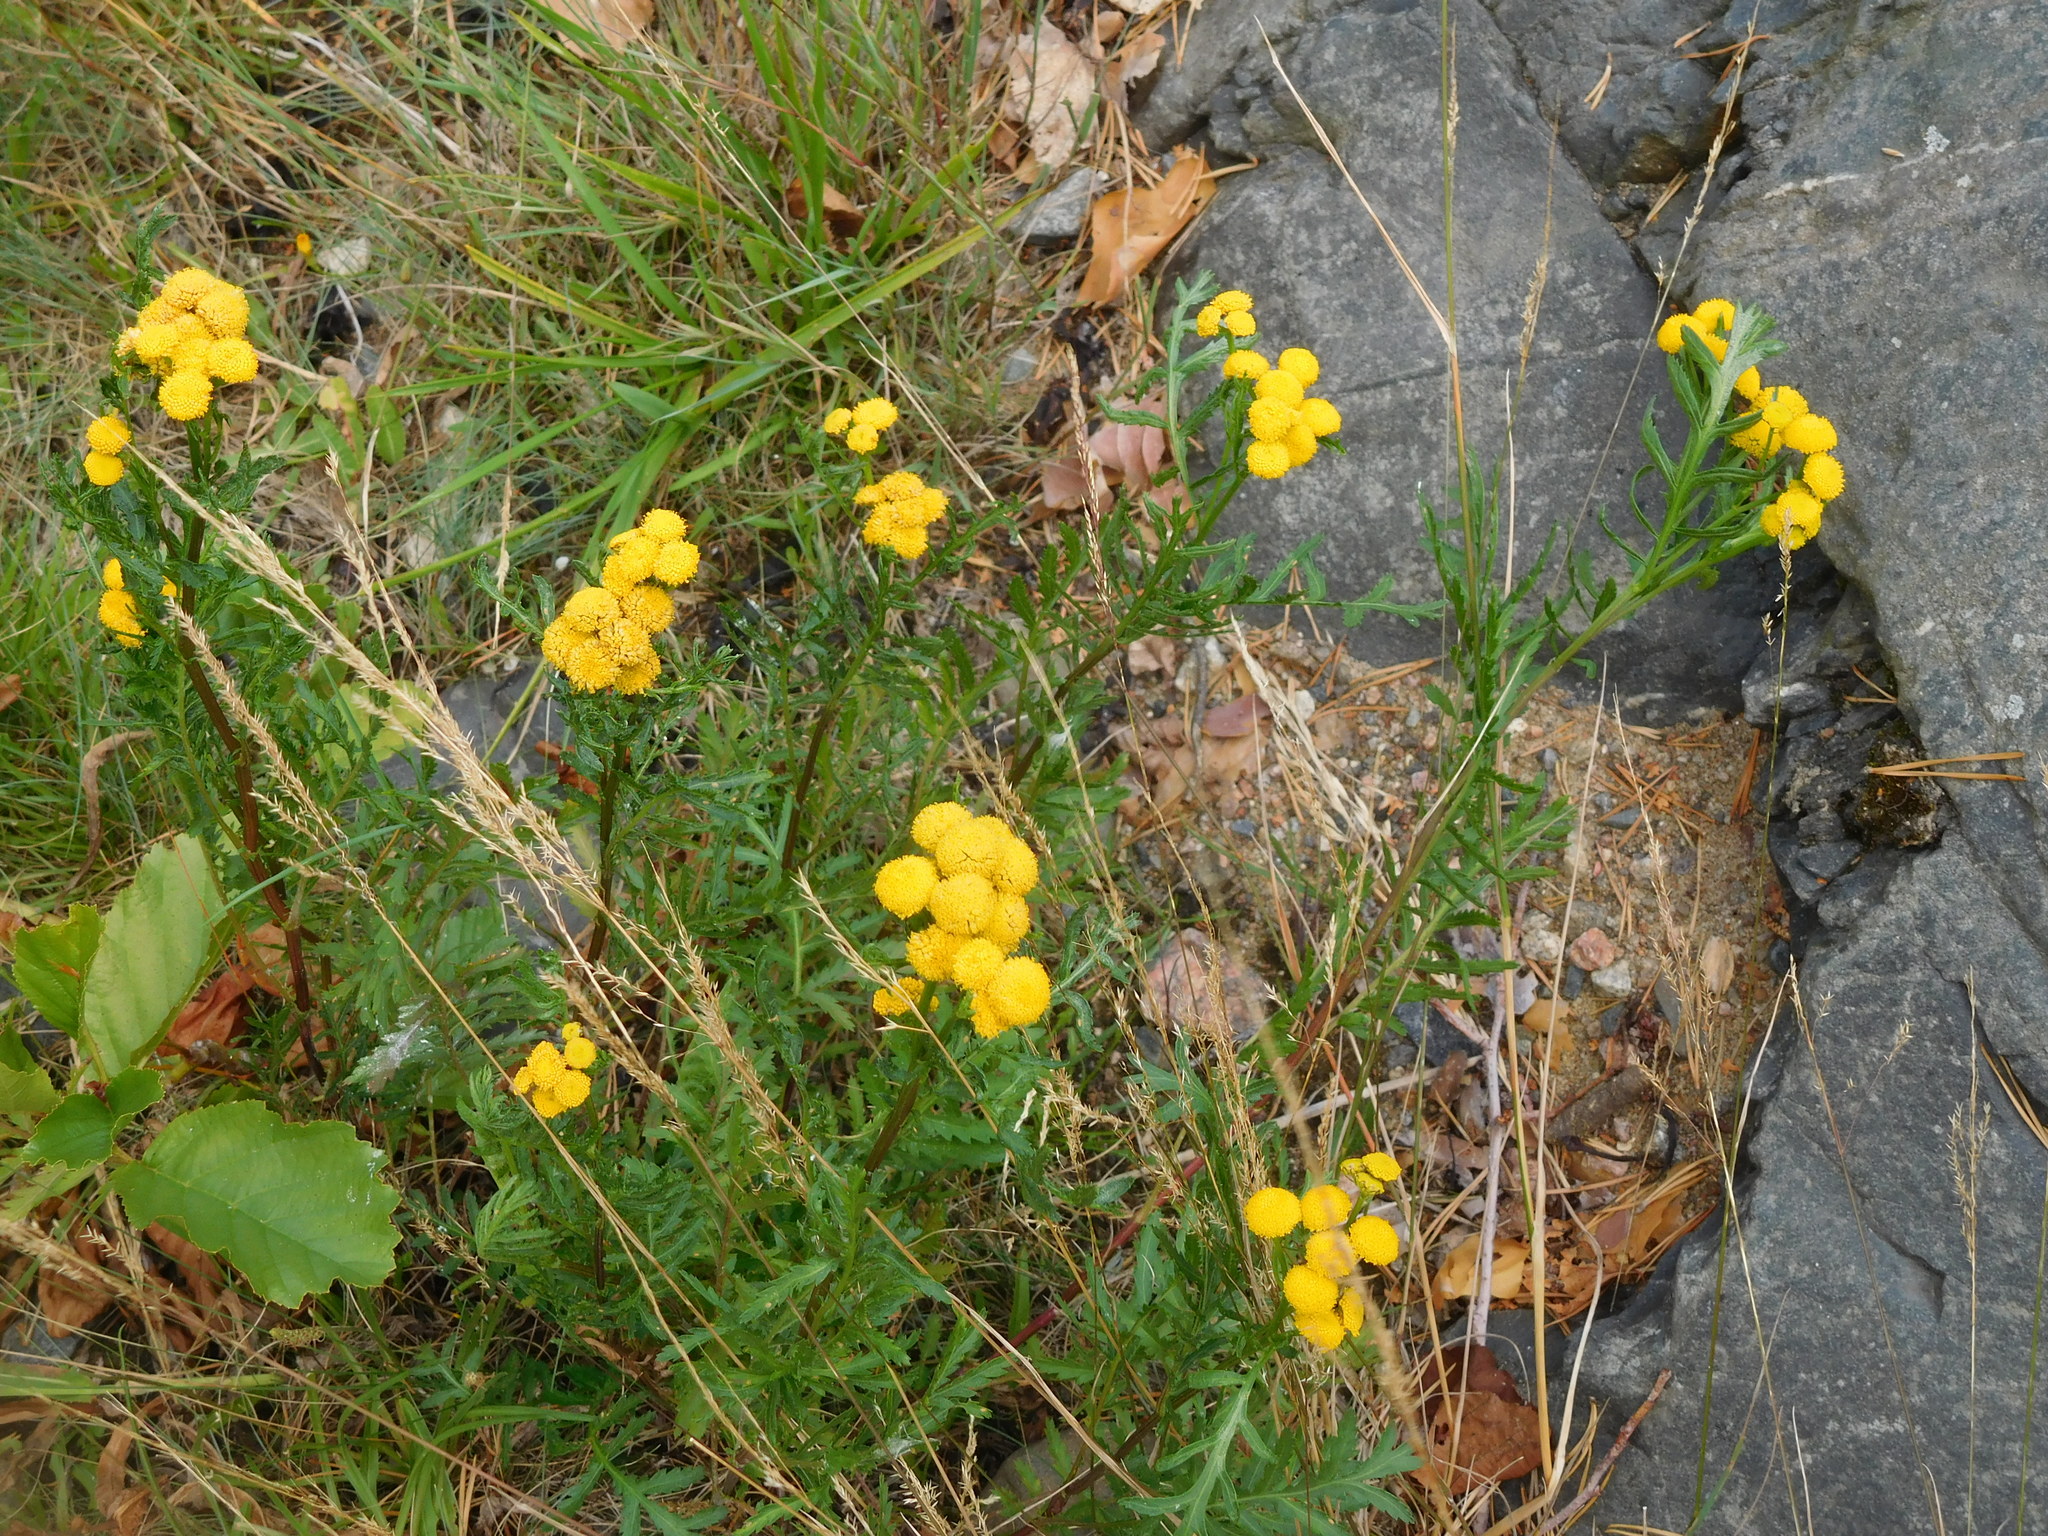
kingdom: Plantae
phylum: Tracheophyta
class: Magnoliopsida
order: Asterales
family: Asteraceae
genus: Tanacetum
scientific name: Tanacetum vulgare
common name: Common tansy
